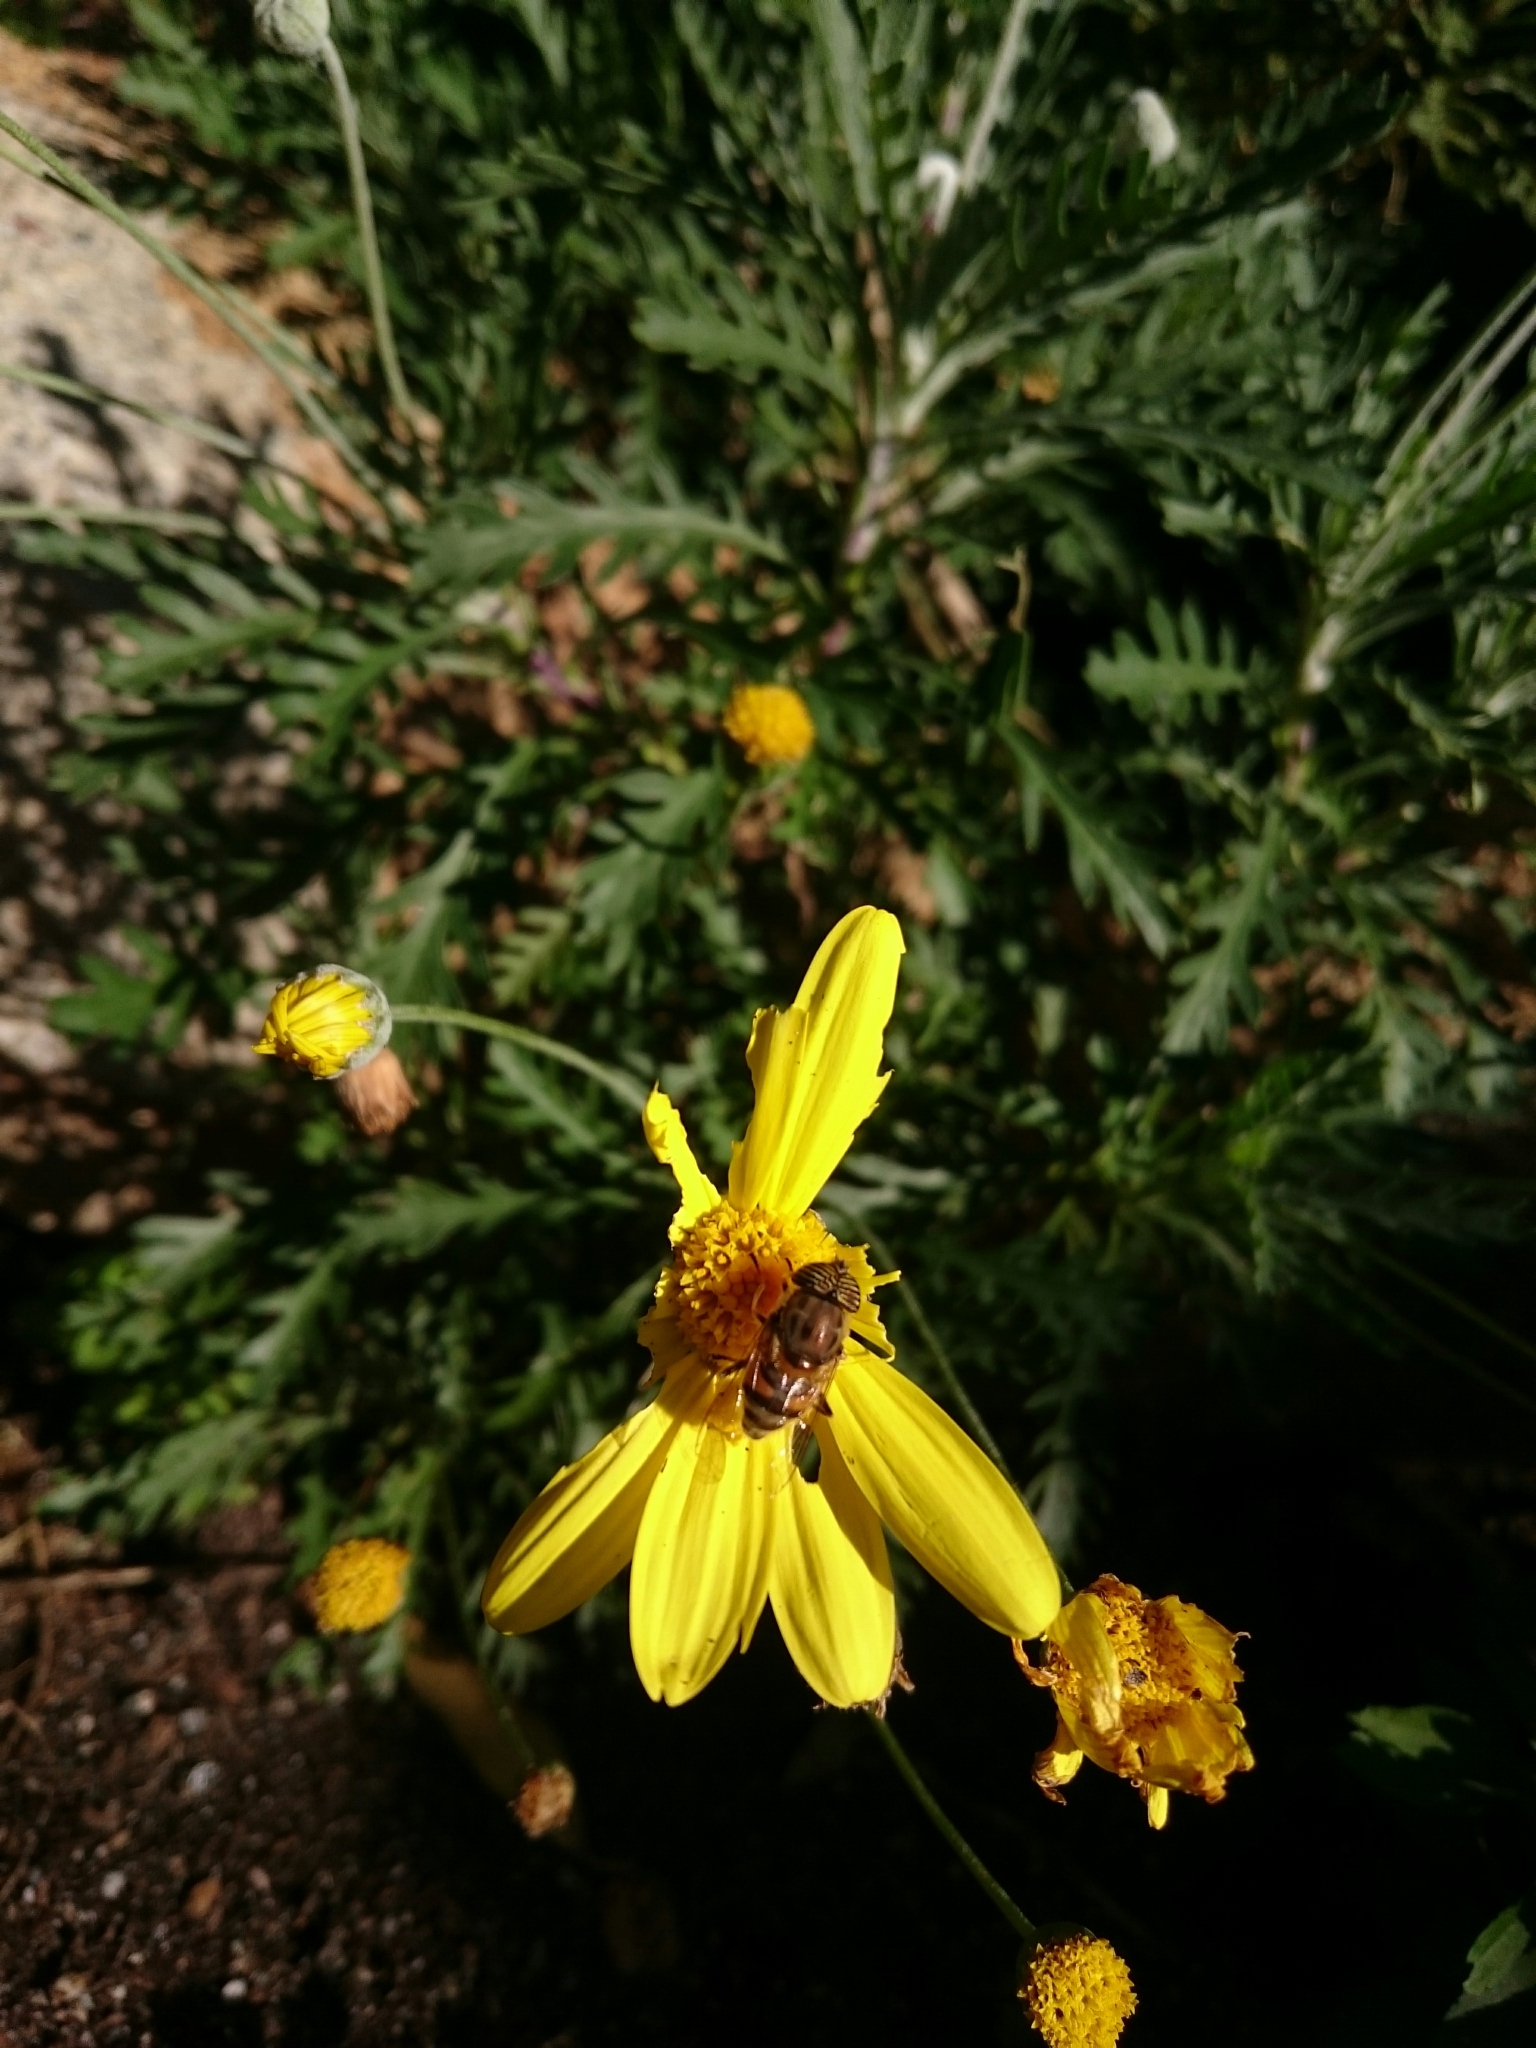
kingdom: Animalia
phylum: Arthropoda
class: Insecta
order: Diptera
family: Syrphidae
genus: Eristalinus
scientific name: Eristalinus taeniops
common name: Syrphid fly
